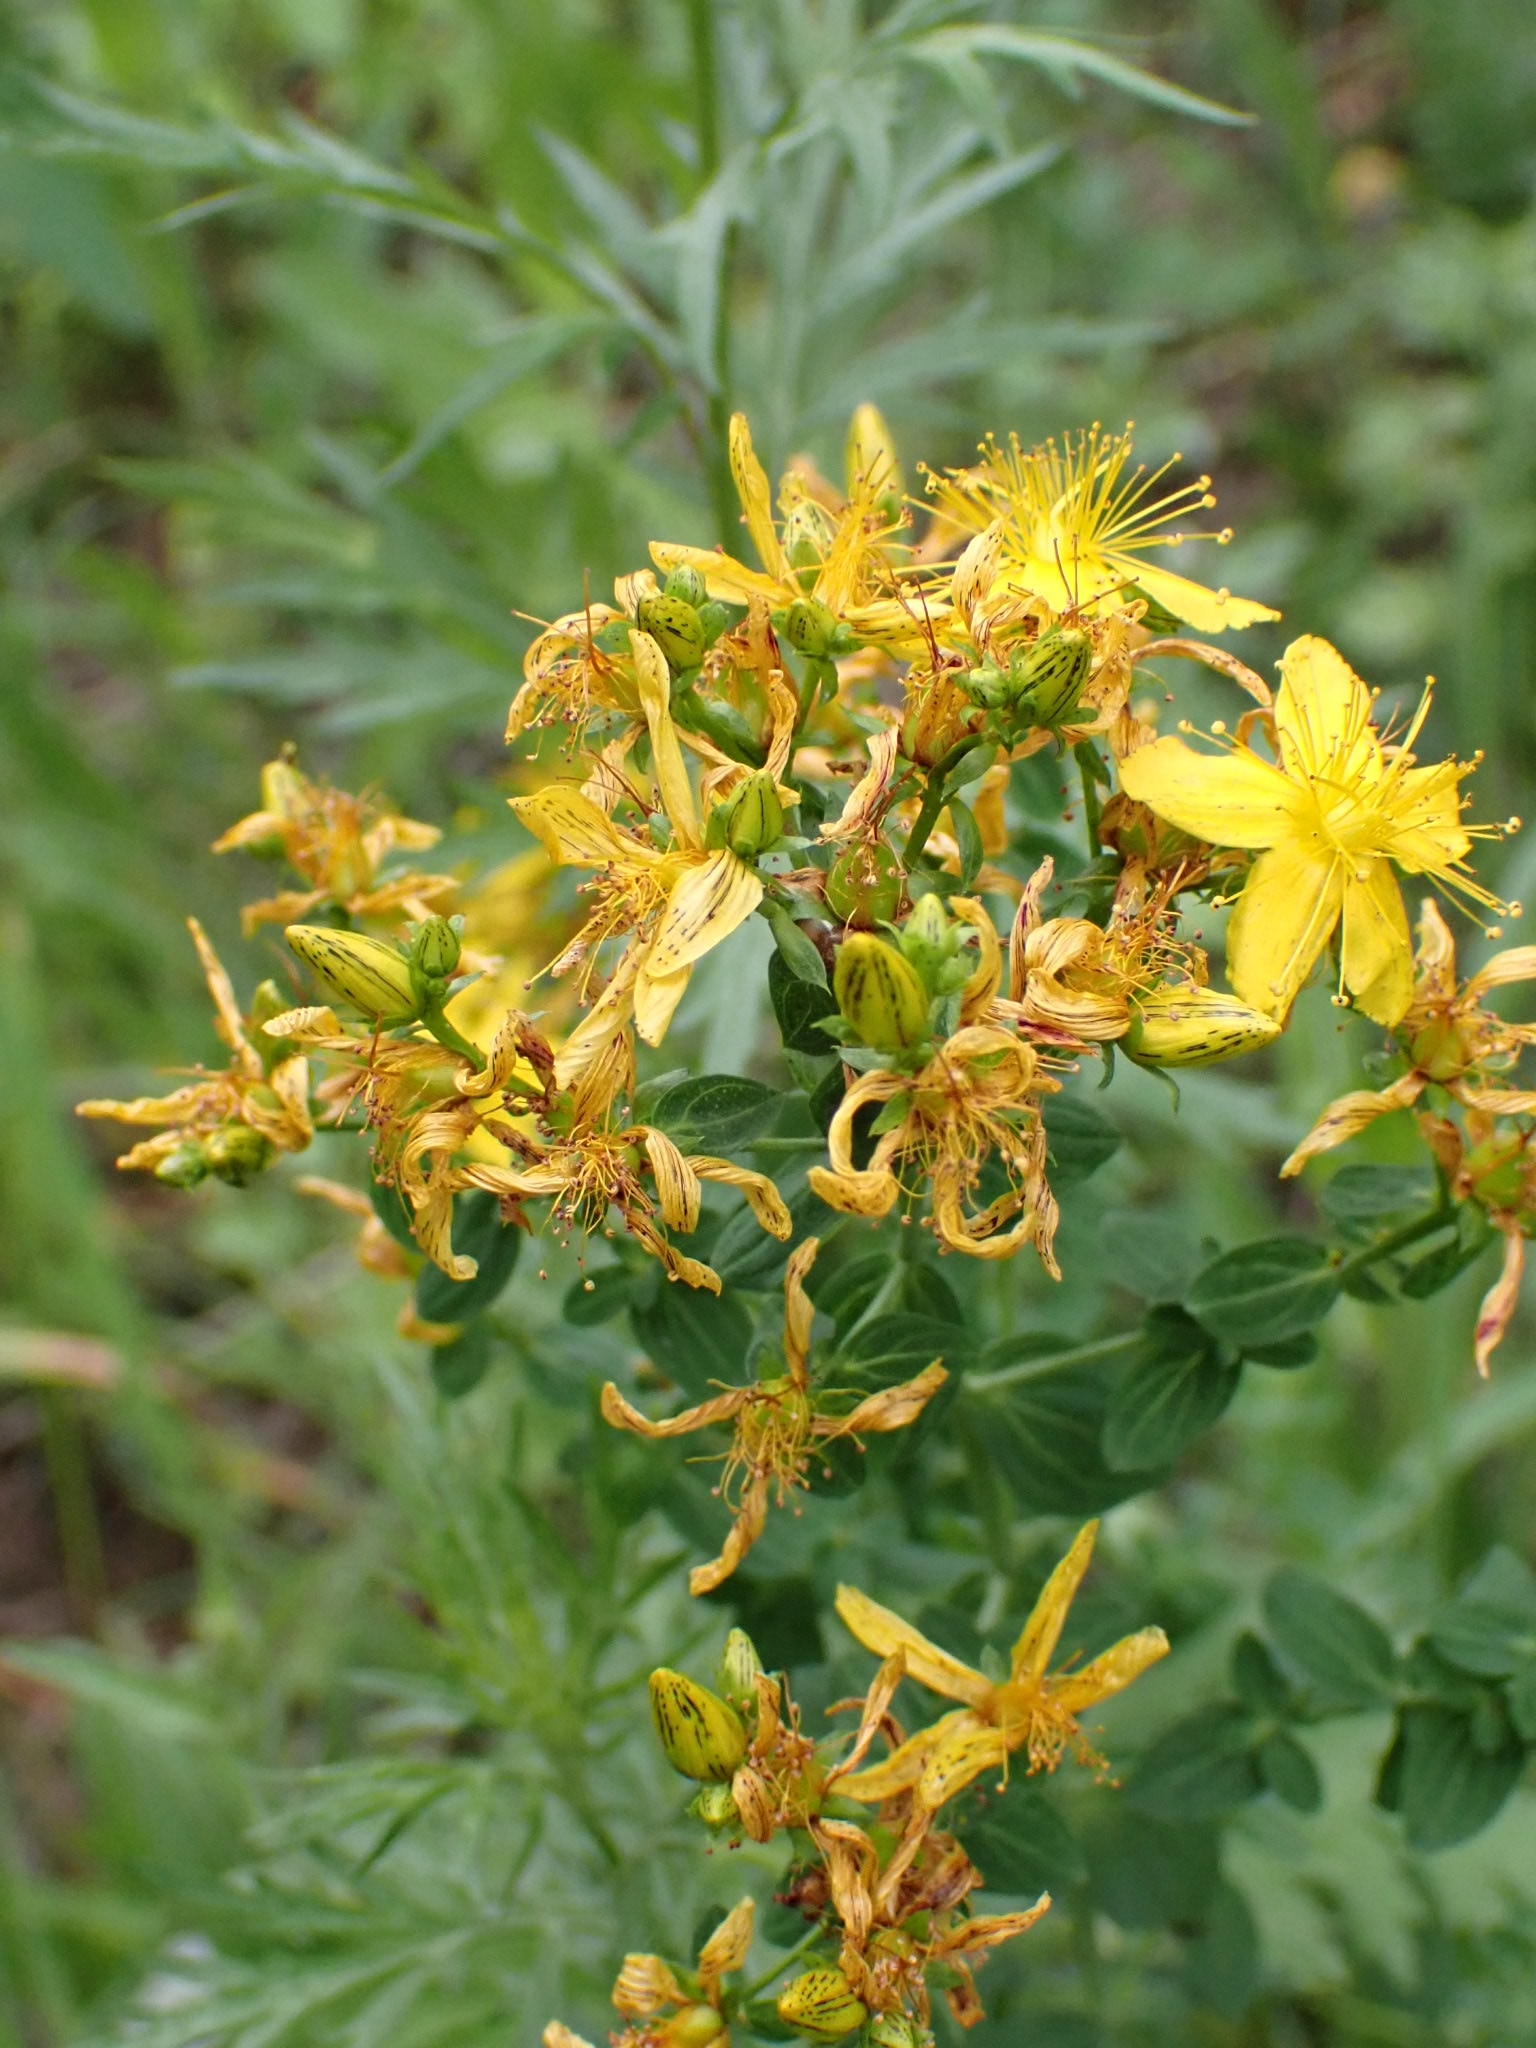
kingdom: Plantae
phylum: Tracheophyta
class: Magnoliopsida
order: Malpighiales
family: Hypericaceae
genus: Hypericum
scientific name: Hypericum perforatum
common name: Common st. johnswort
